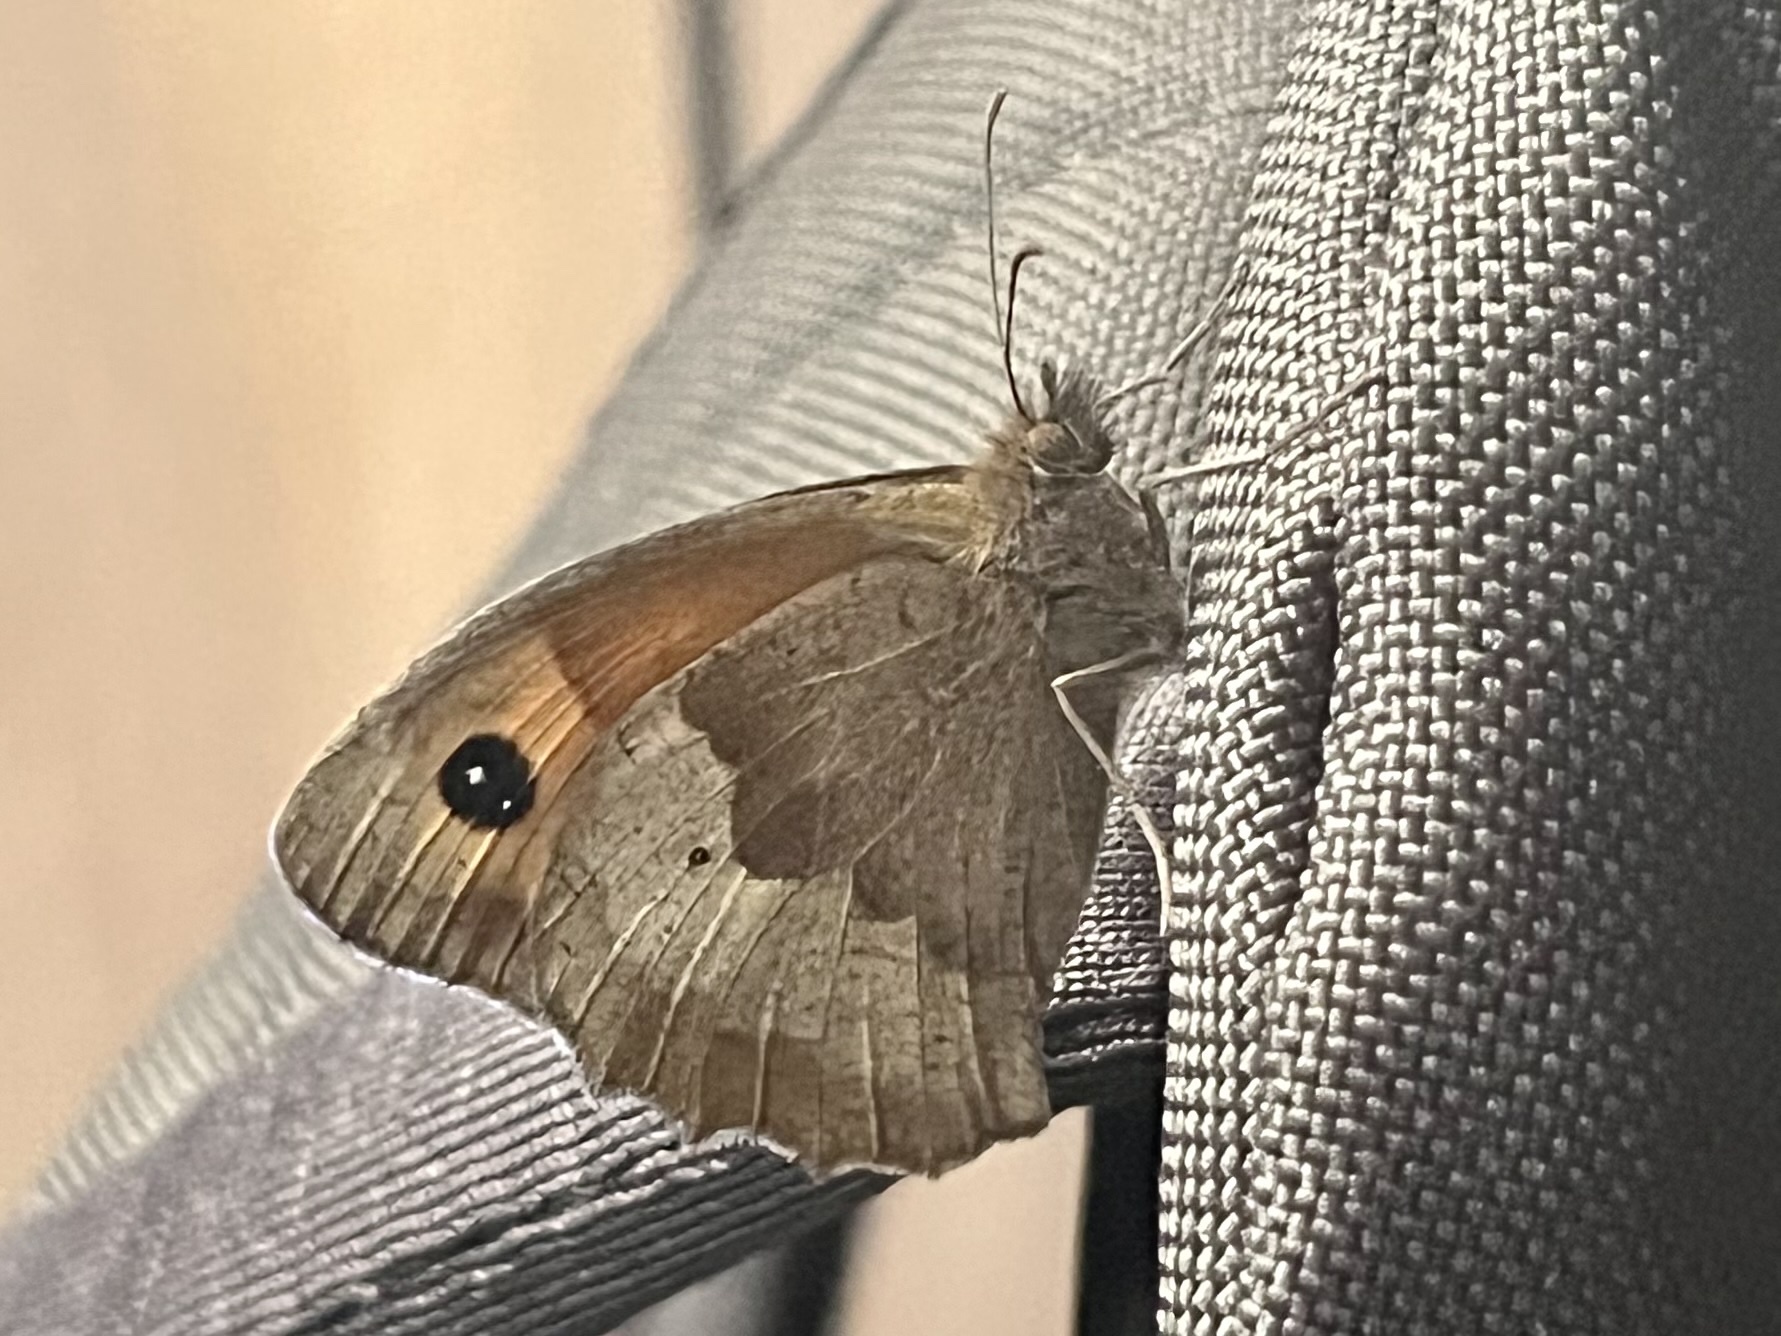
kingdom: Animalia
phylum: Arthropoda
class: Insecta
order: Lepidoptera
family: Nymphalidae
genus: Maniola
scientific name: Maniola jurtina
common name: Meadow brown
